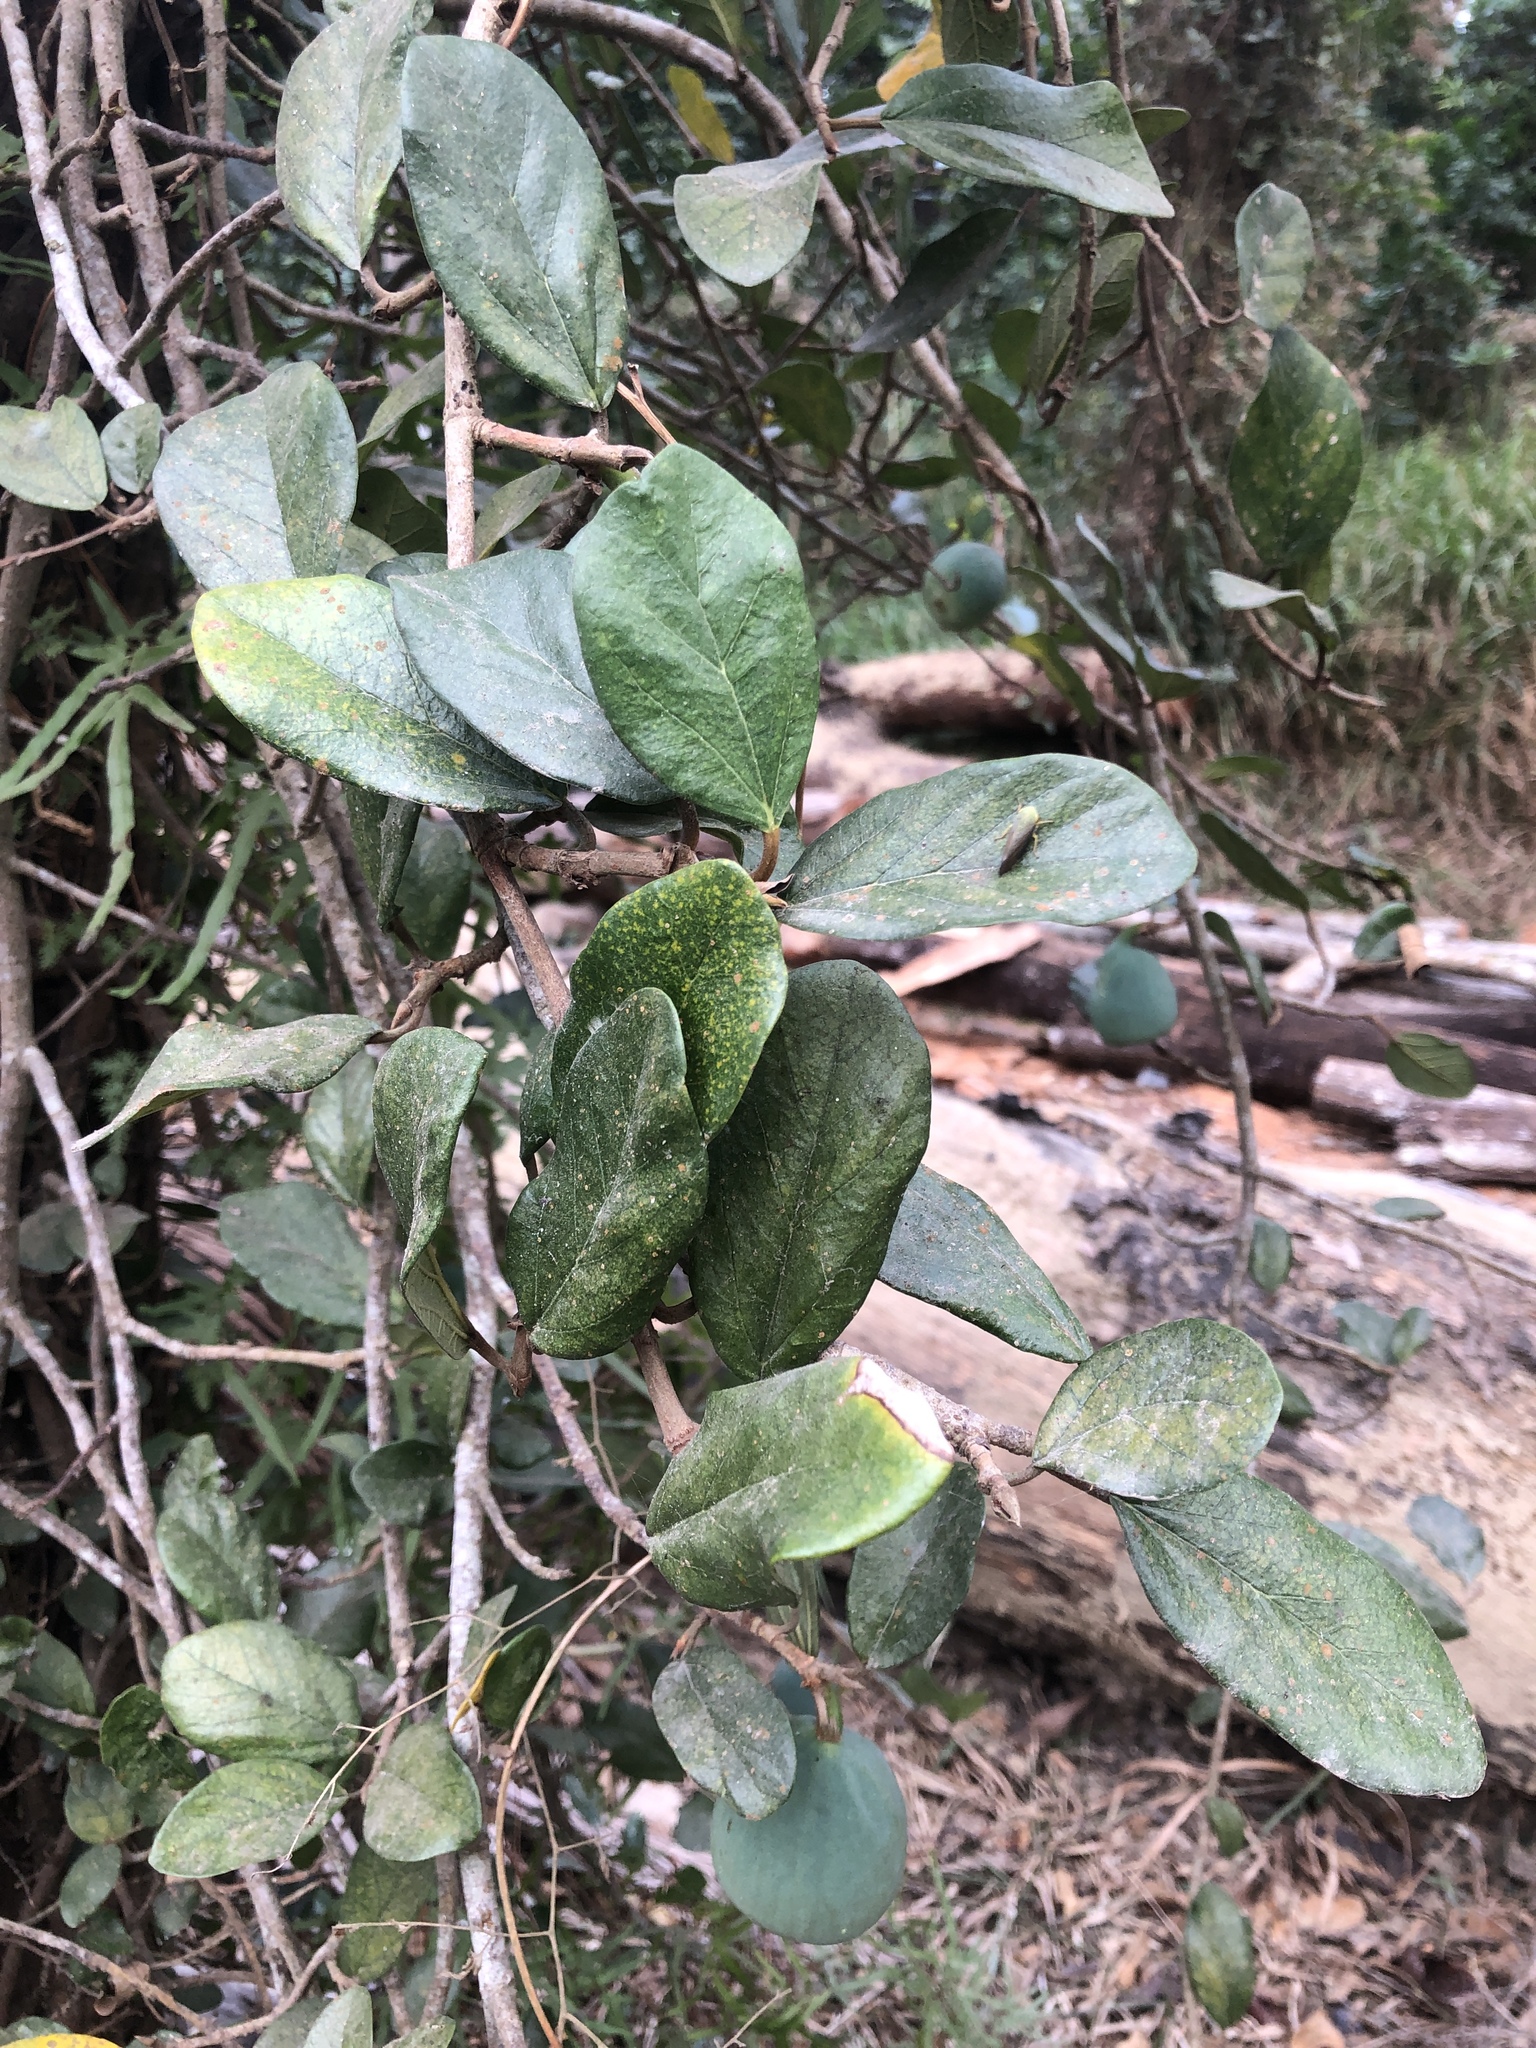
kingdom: Plantae
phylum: Tracheophyta
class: Magnoliopsida
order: Rosales
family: Moraceae
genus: Ficus
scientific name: Ficus pumila
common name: Climbingfig
